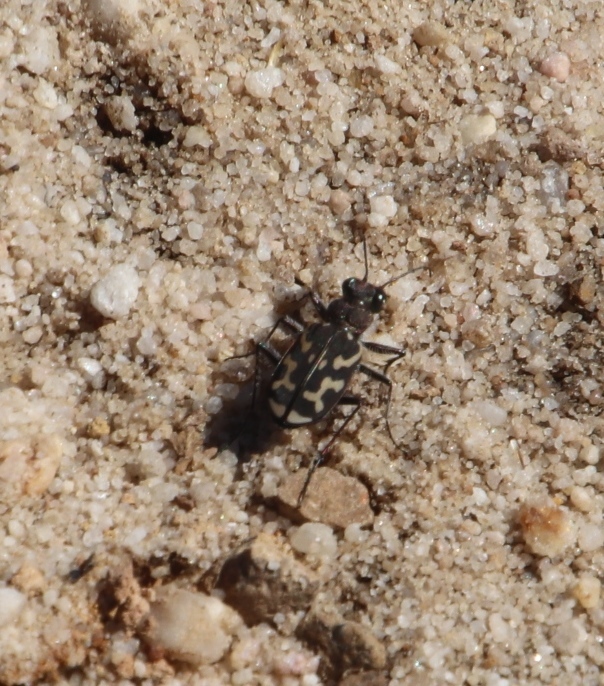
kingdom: Animalia
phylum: Arthropoda
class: Insecta
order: Coleoptera
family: Carabidae
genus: Cicindela
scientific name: Cicindela lurida
